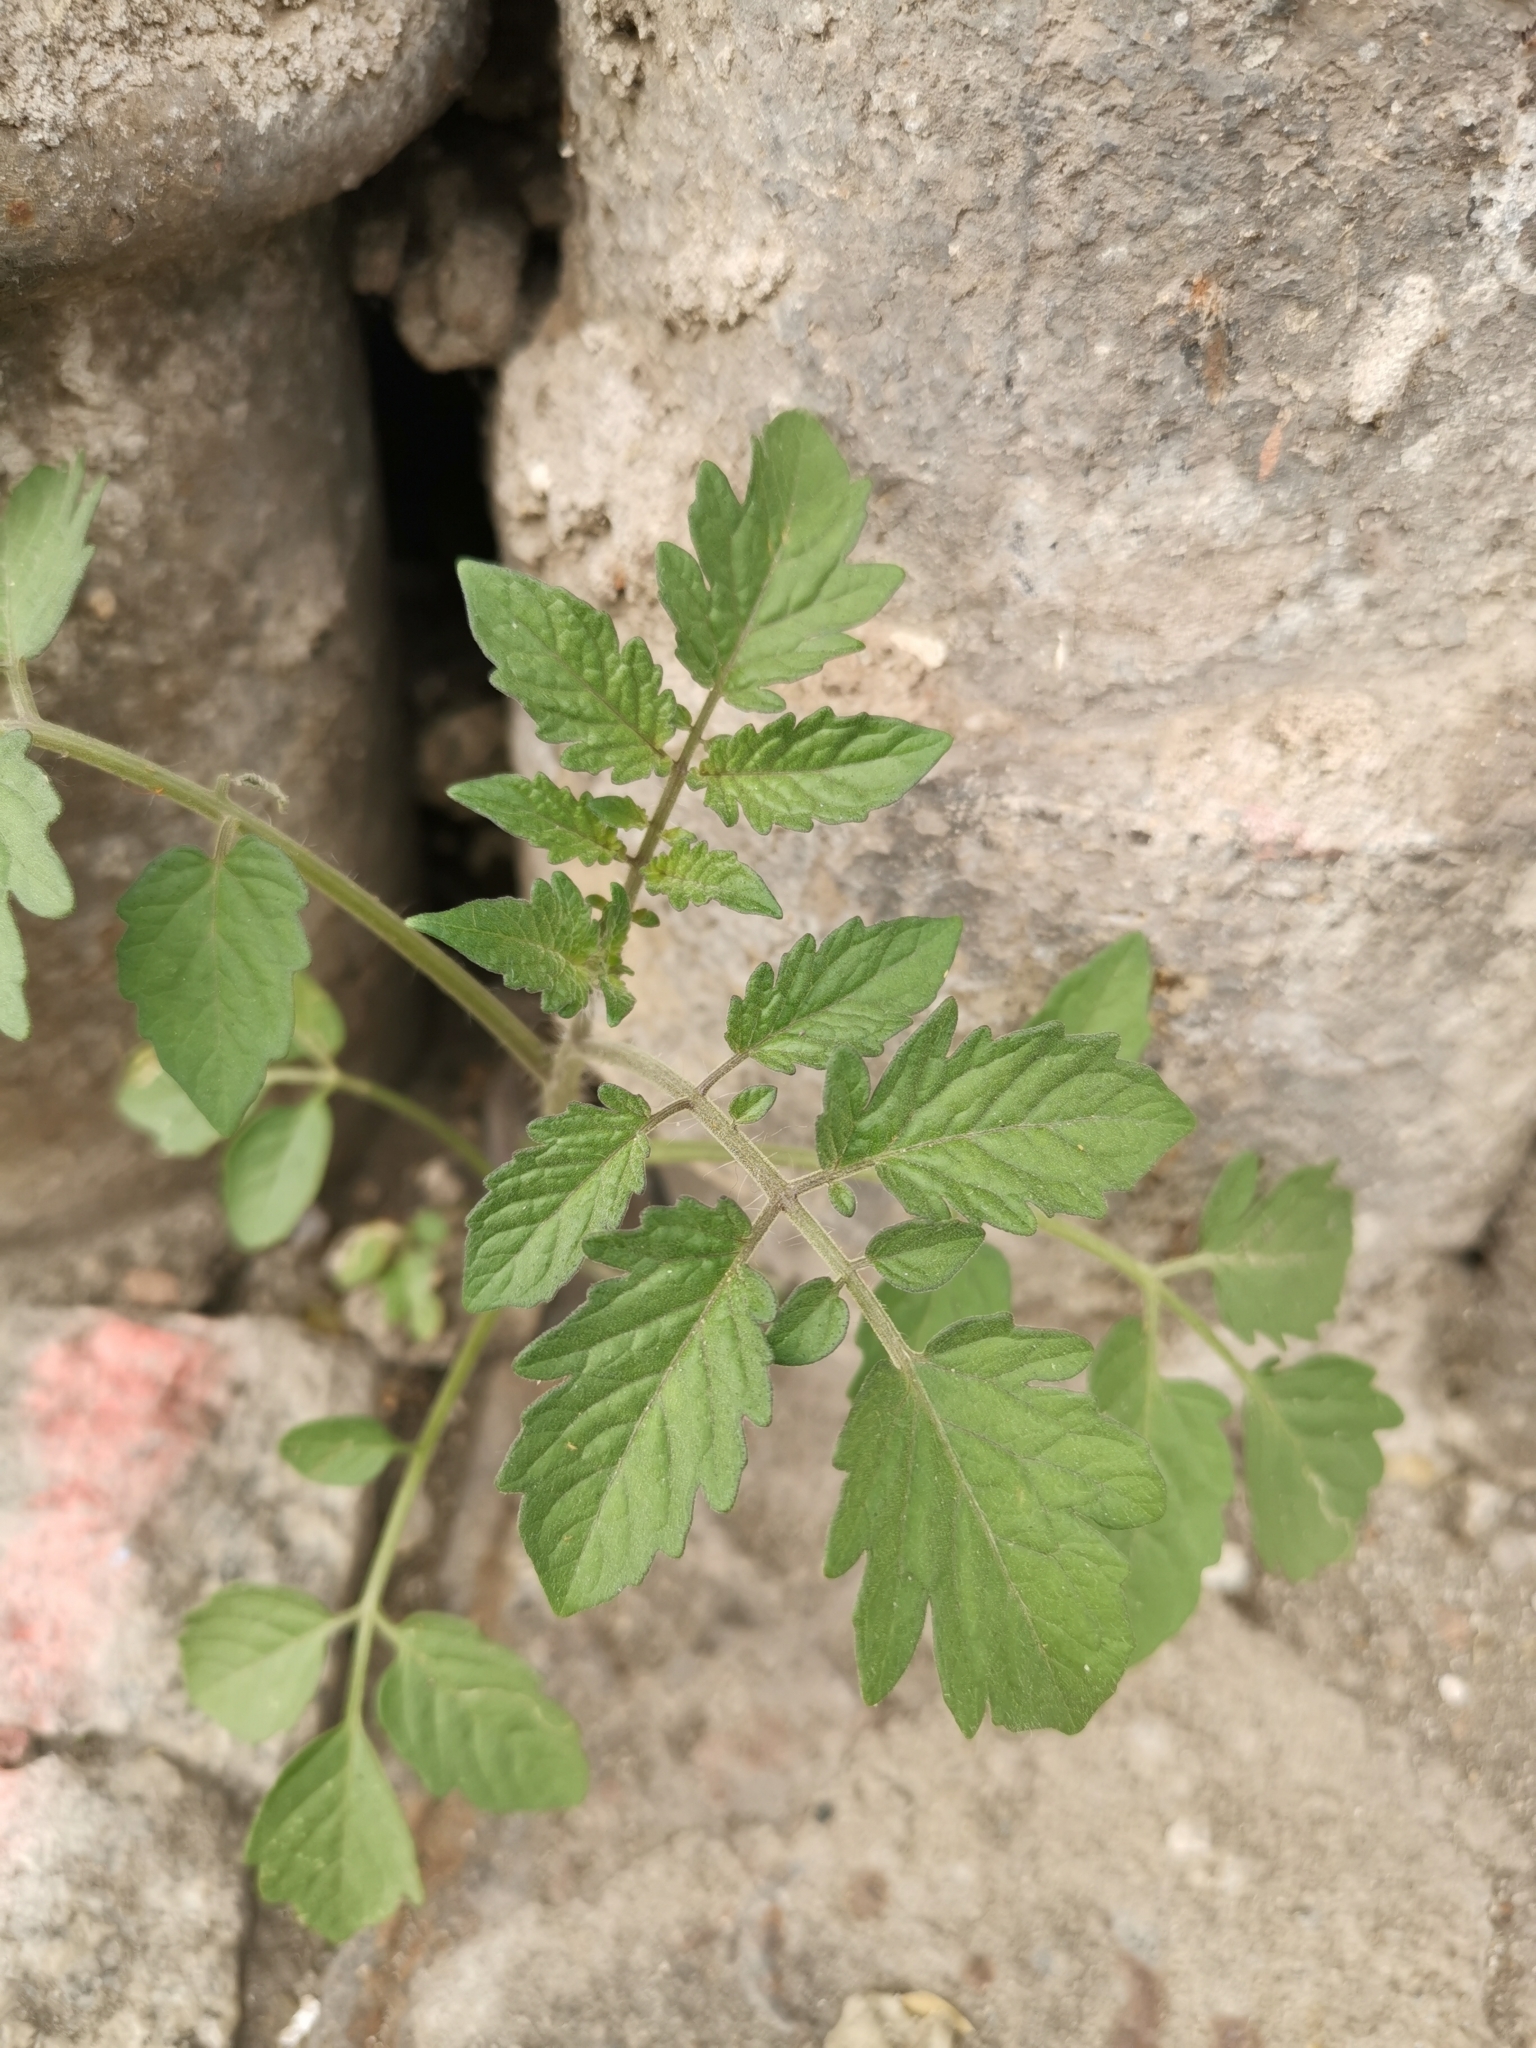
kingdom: Plantae
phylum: Tracheophyta
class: Magnoliopsida
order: Solanales
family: Solanaceae
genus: Solanum
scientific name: Solanum lycopersicum
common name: Garden tomato
